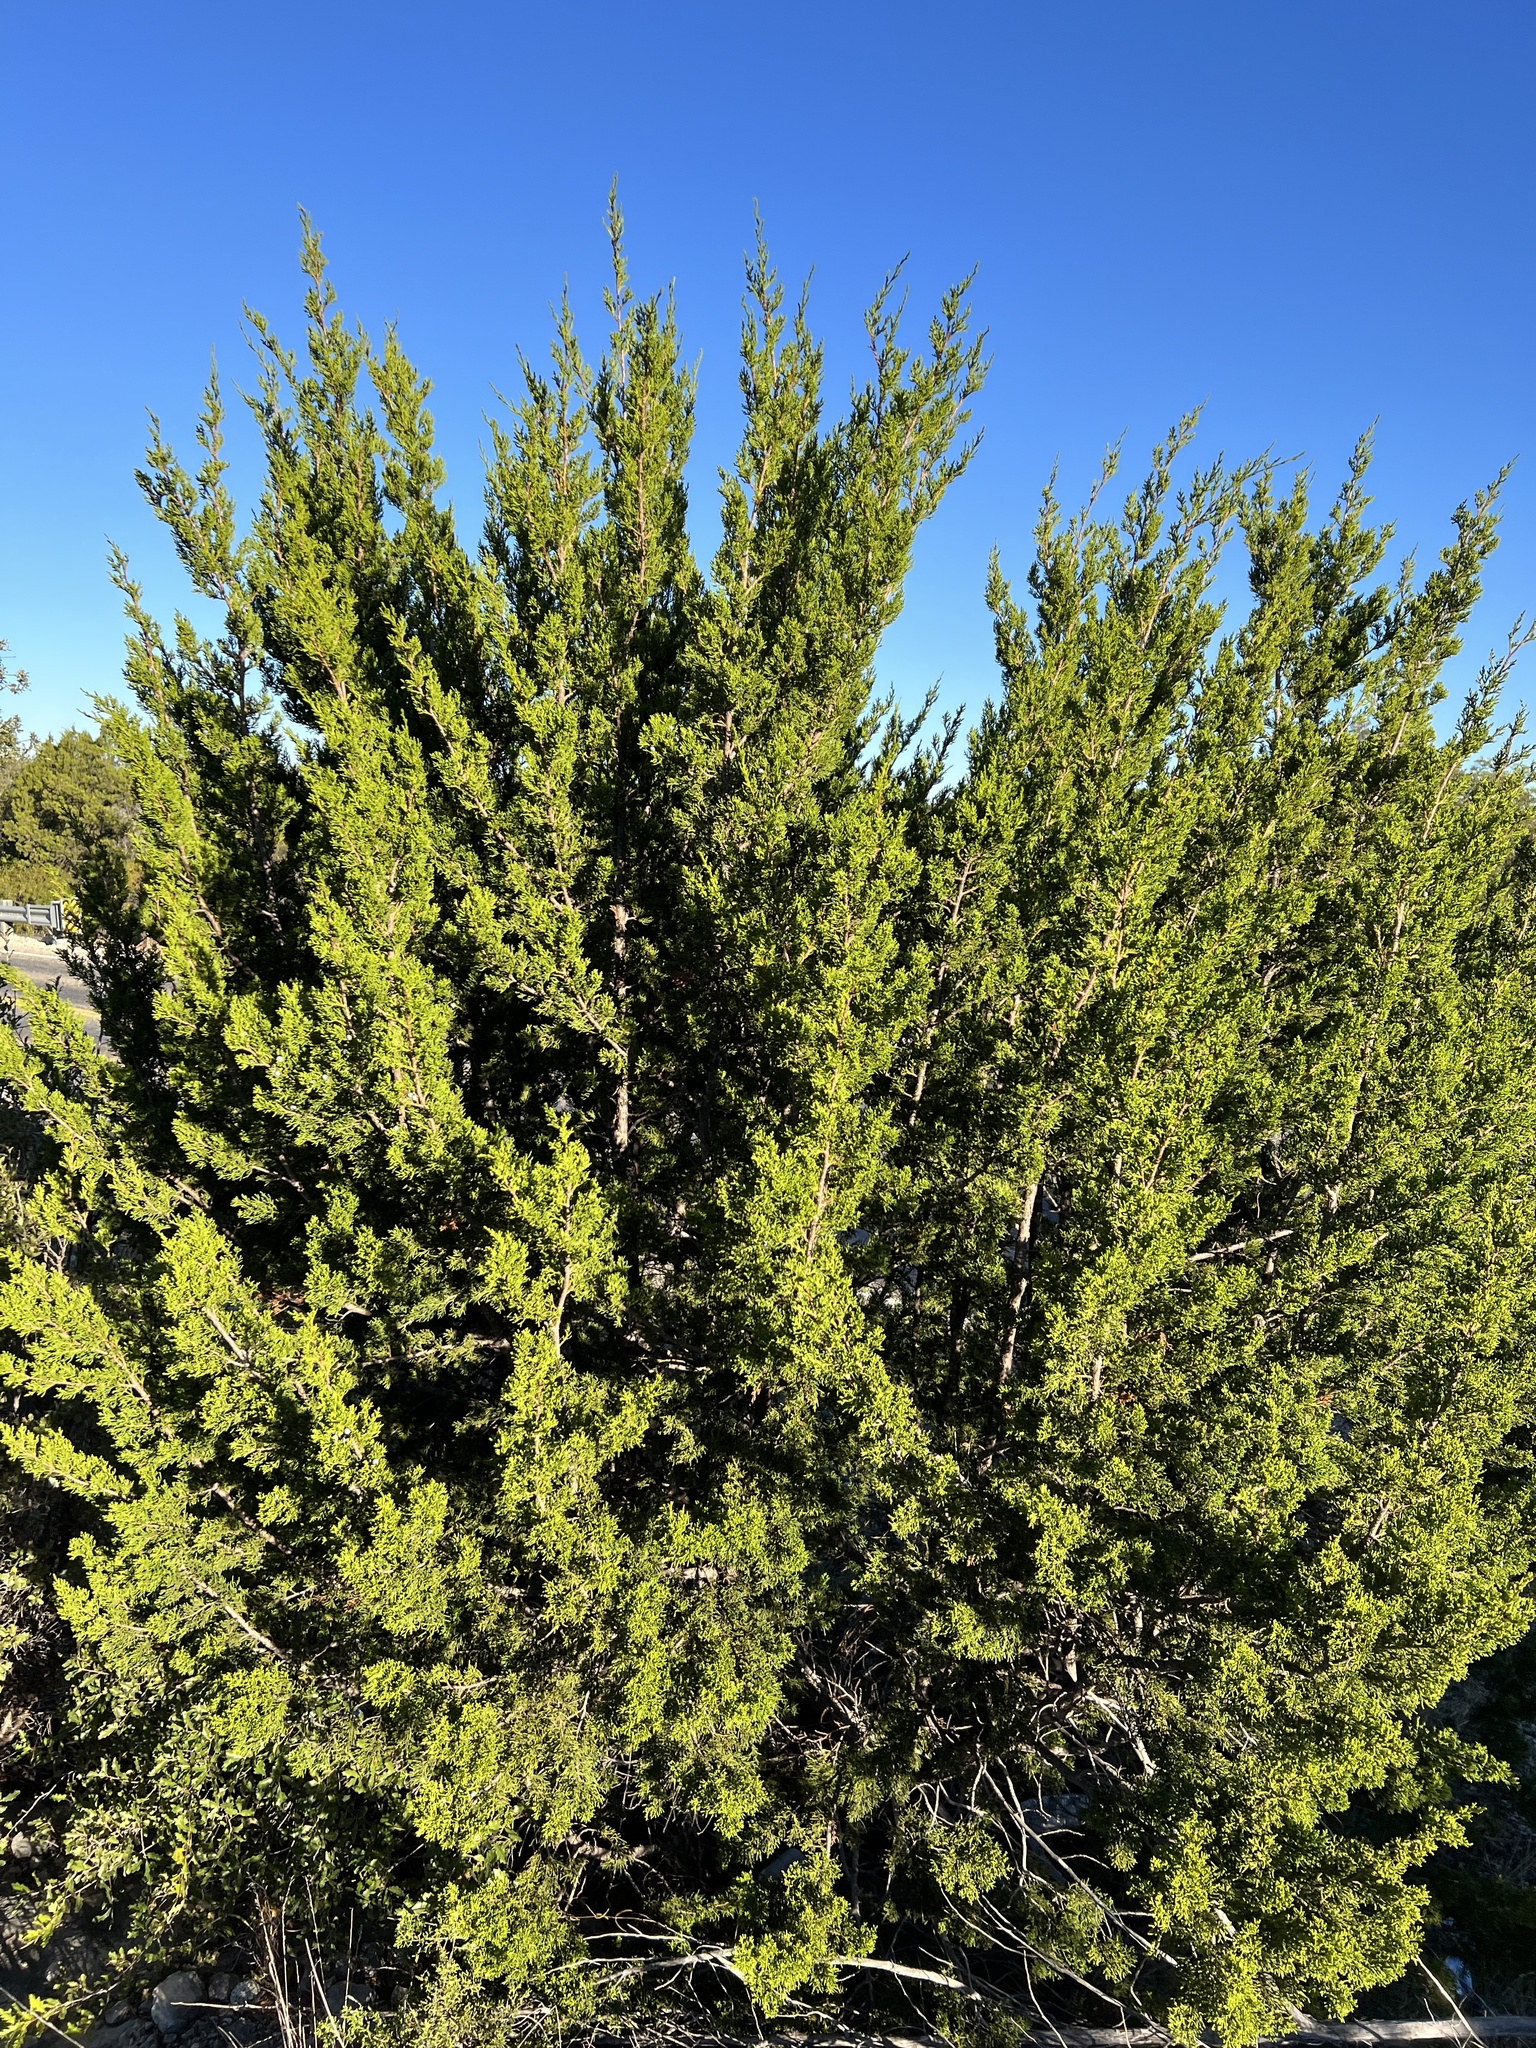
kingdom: Plantae
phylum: Tracheophyta
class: Pinopsida
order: Pinales
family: Cupressaceae
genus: Juniperus
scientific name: Juniperus ashei
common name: Mexican juniper
